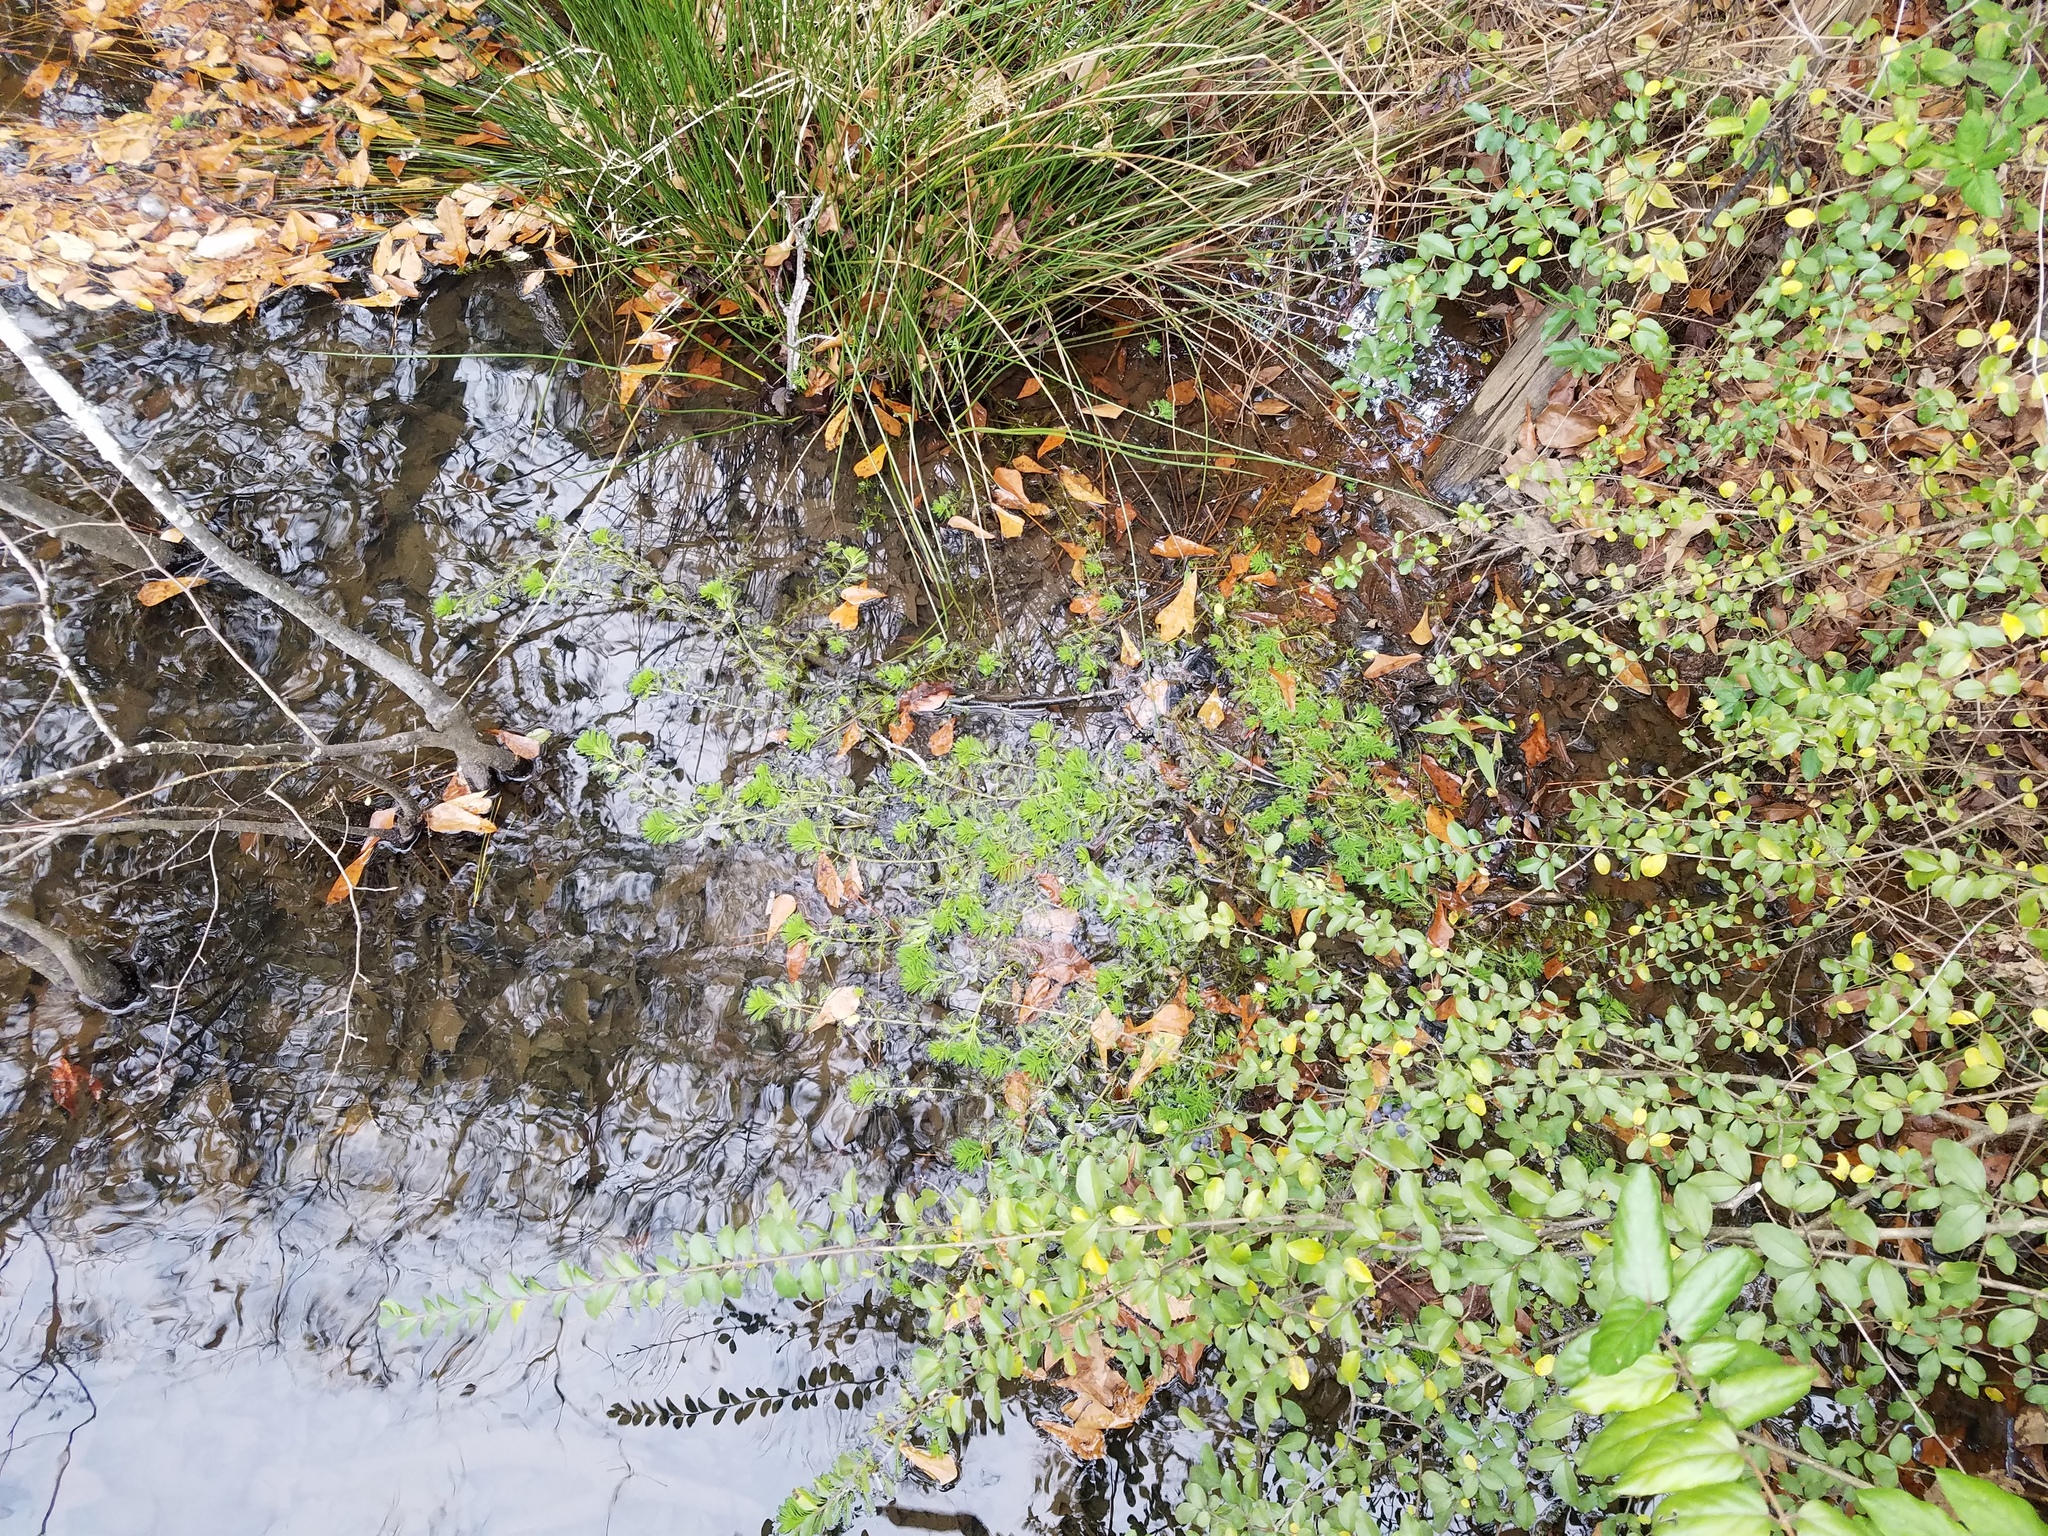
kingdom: Plantae
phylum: Tracheophyta
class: Magnoliopsida
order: Saxifragales
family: Haloragaceae
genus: Myriophyllum
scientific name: Myriophyllum aquaticum
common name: Parrot's feather
